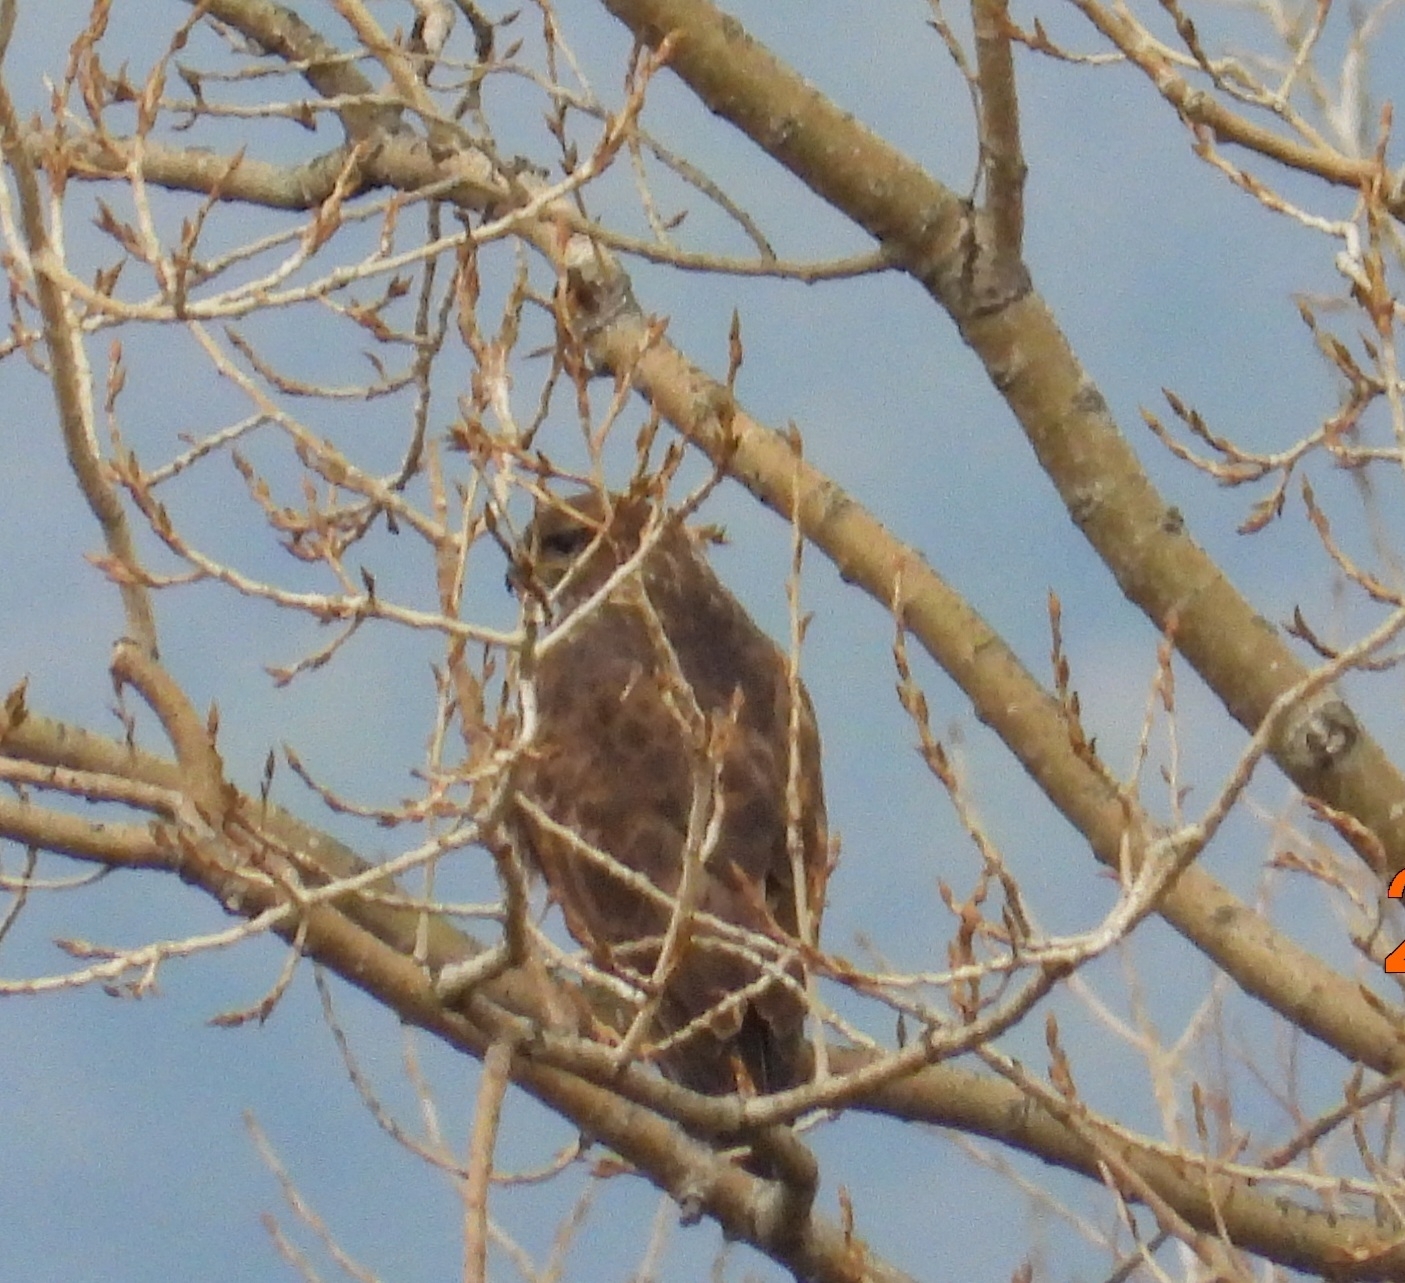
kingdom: Animalia
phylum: Chordata
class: Aves
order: Accipitriformes
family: Accipitridae
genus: Buteo
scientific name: Buteo buteo
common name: Common buzzard
